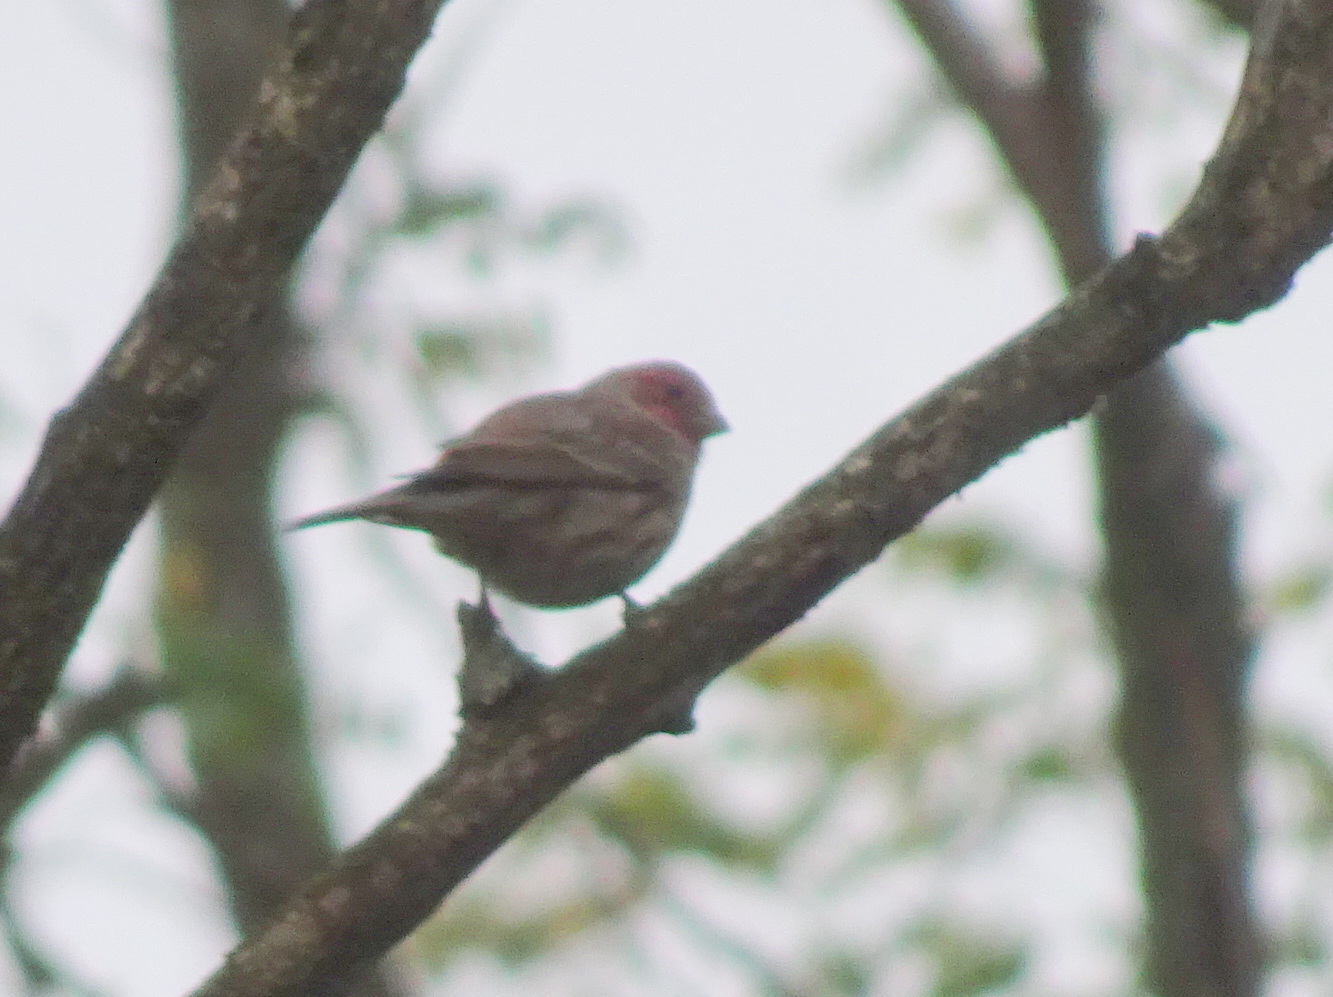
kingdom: Animalia
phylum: Chordata
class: Aves
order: Passeriformes
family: Fringillidae
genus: Haemorhous
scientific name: Haemorhous mexicanus
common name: House finch
